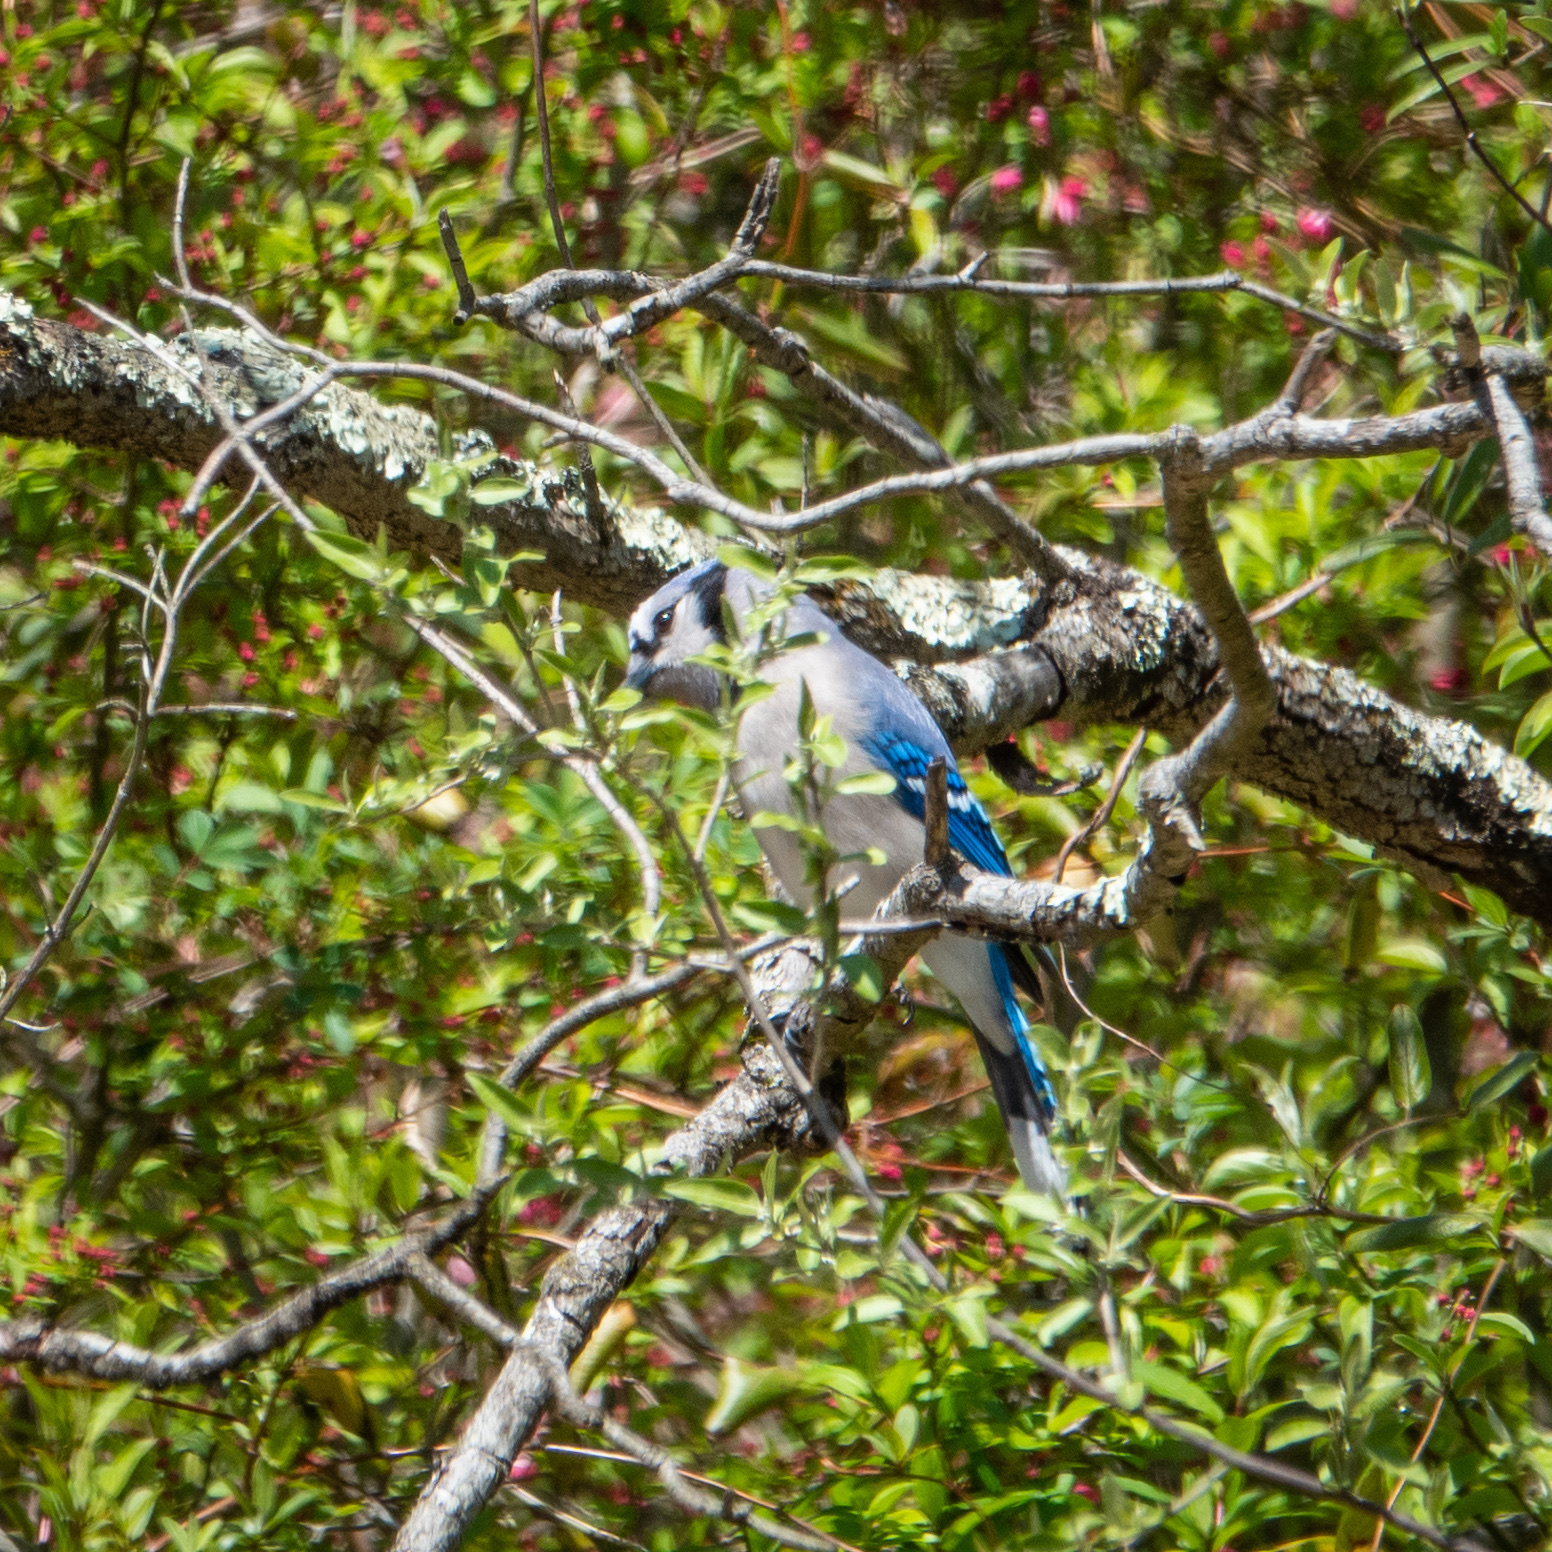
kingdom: Animalia
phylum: Chordata
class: Aves
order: Passeriformes
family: Corvidae
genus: Cyanocitta
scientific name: Cyanocitta cristata
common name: Blue jay
